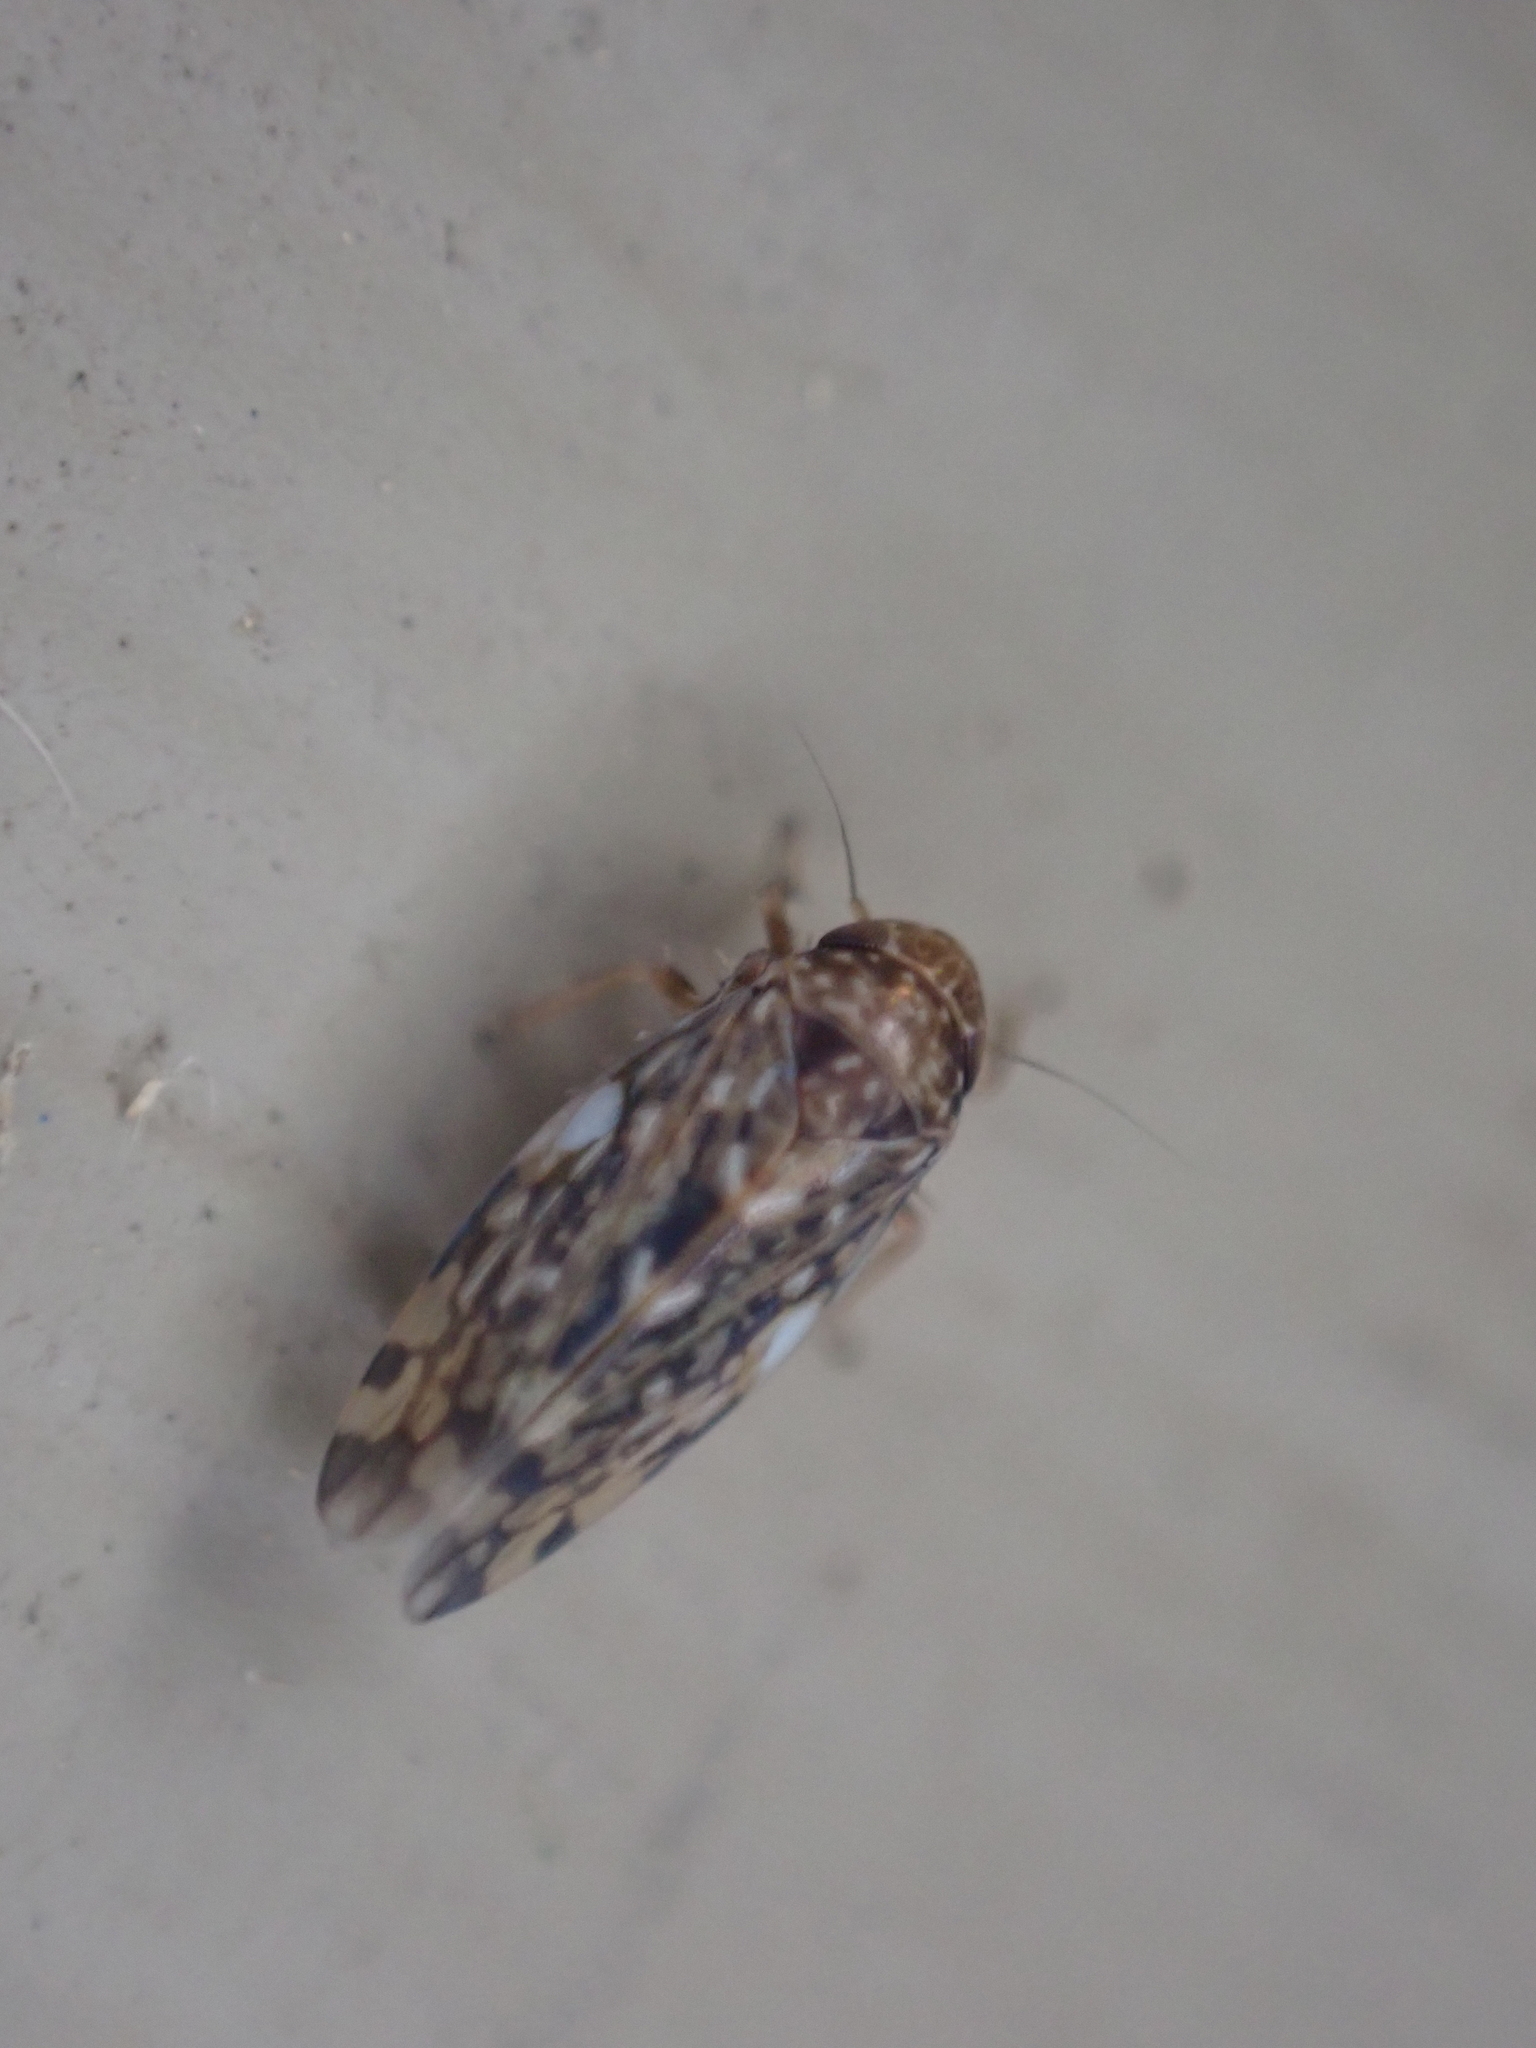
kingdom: Animalia
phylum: Arthropoda
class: Insecta
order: Hemiptera
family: Cicadellidae
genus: Xestocephalus
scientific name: Xestocephalus
